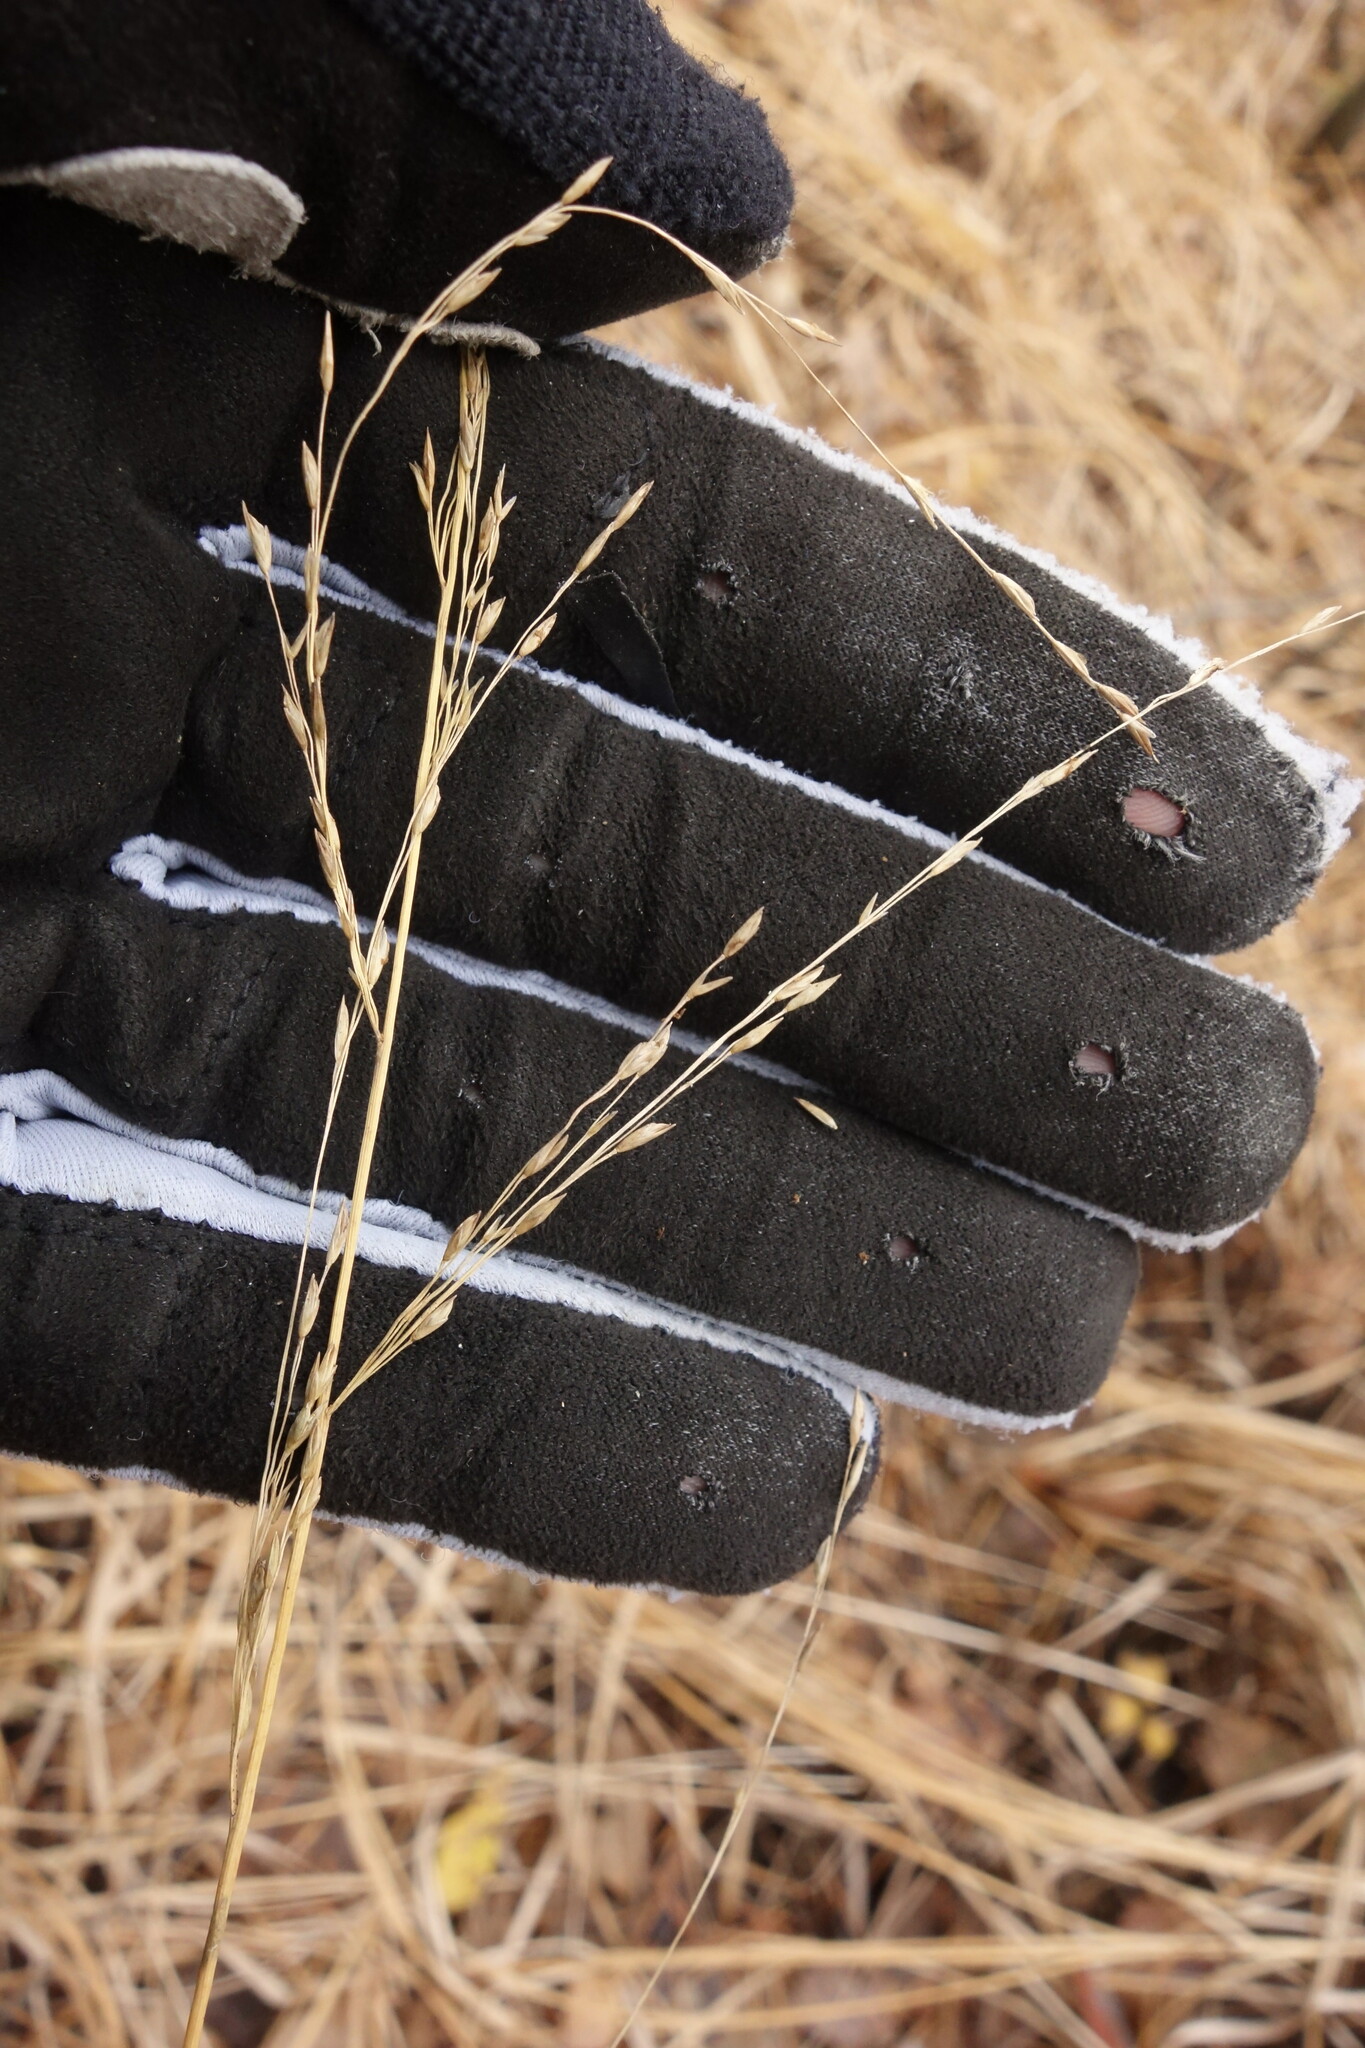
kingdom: Plantae
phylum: Tracheophyta
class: Liliopsida
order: Poales
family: Poaceae
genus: Molinia
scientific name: Molinia caerulea
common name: Purple moor-grass
